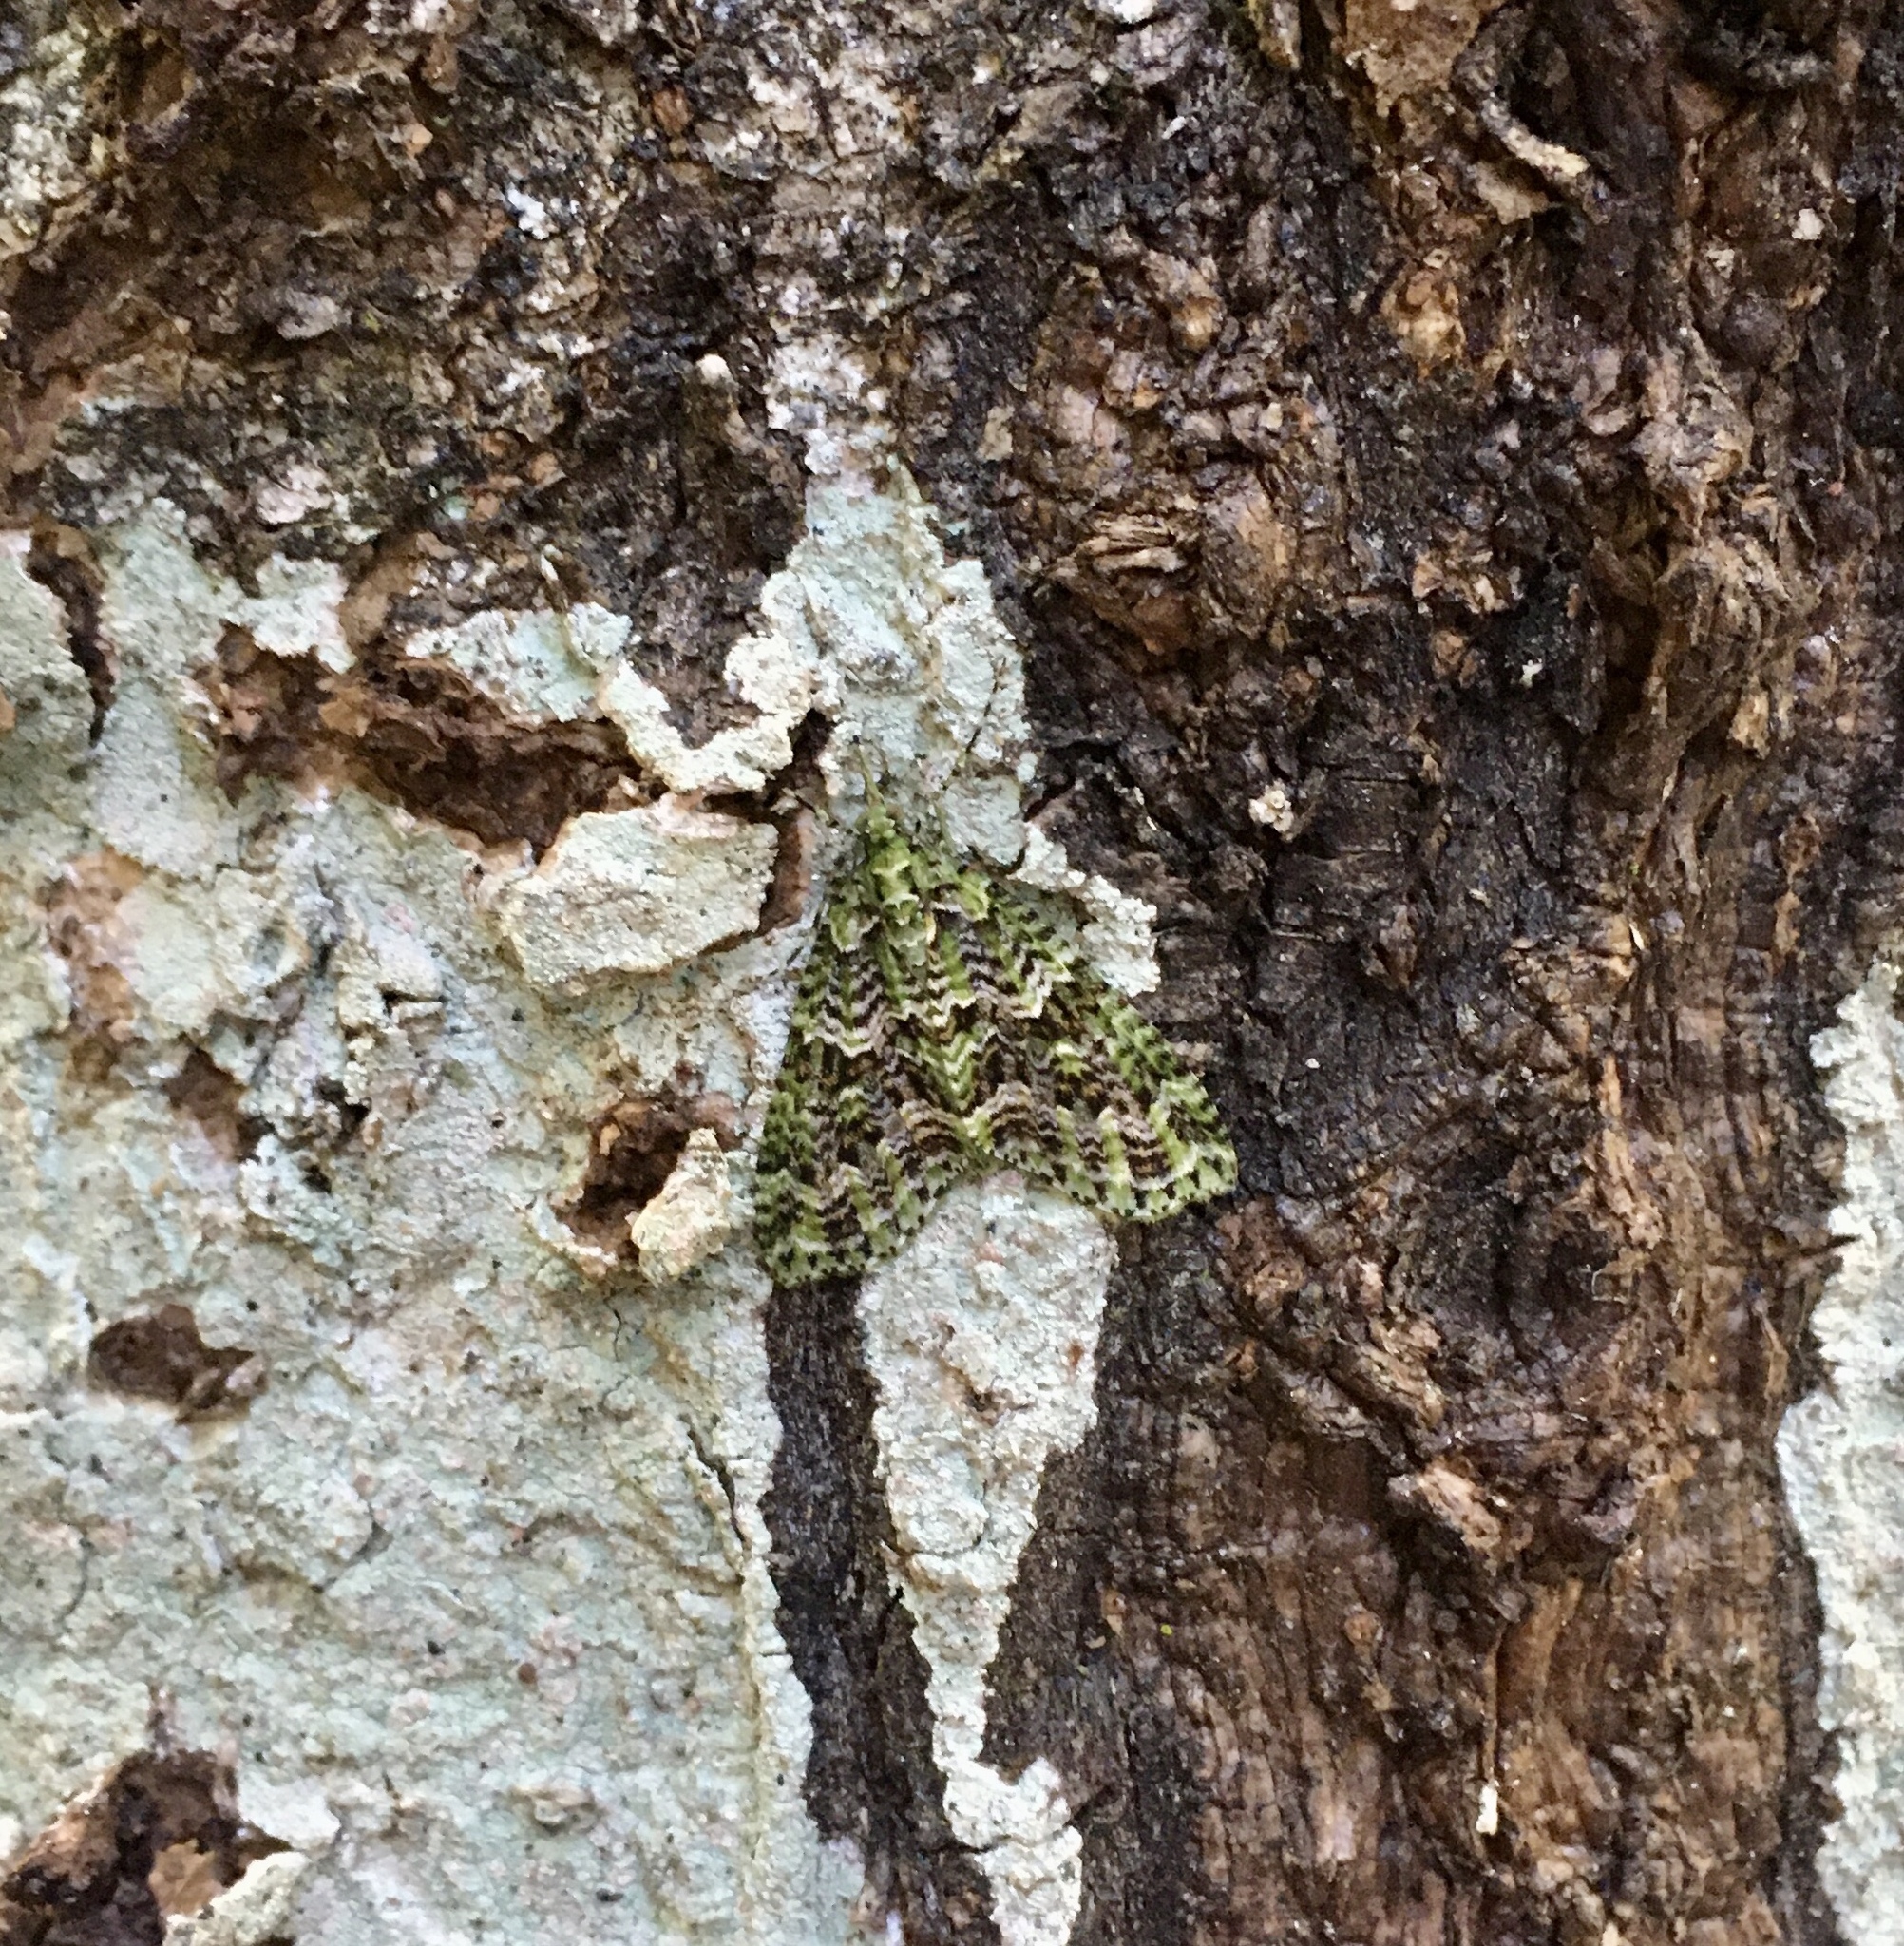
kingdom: Animalia
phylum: Arthropoda
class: Insecta
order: Lepidoptera
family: Geometridae
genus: Tatosoma
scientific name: Tatosoma tipulata
